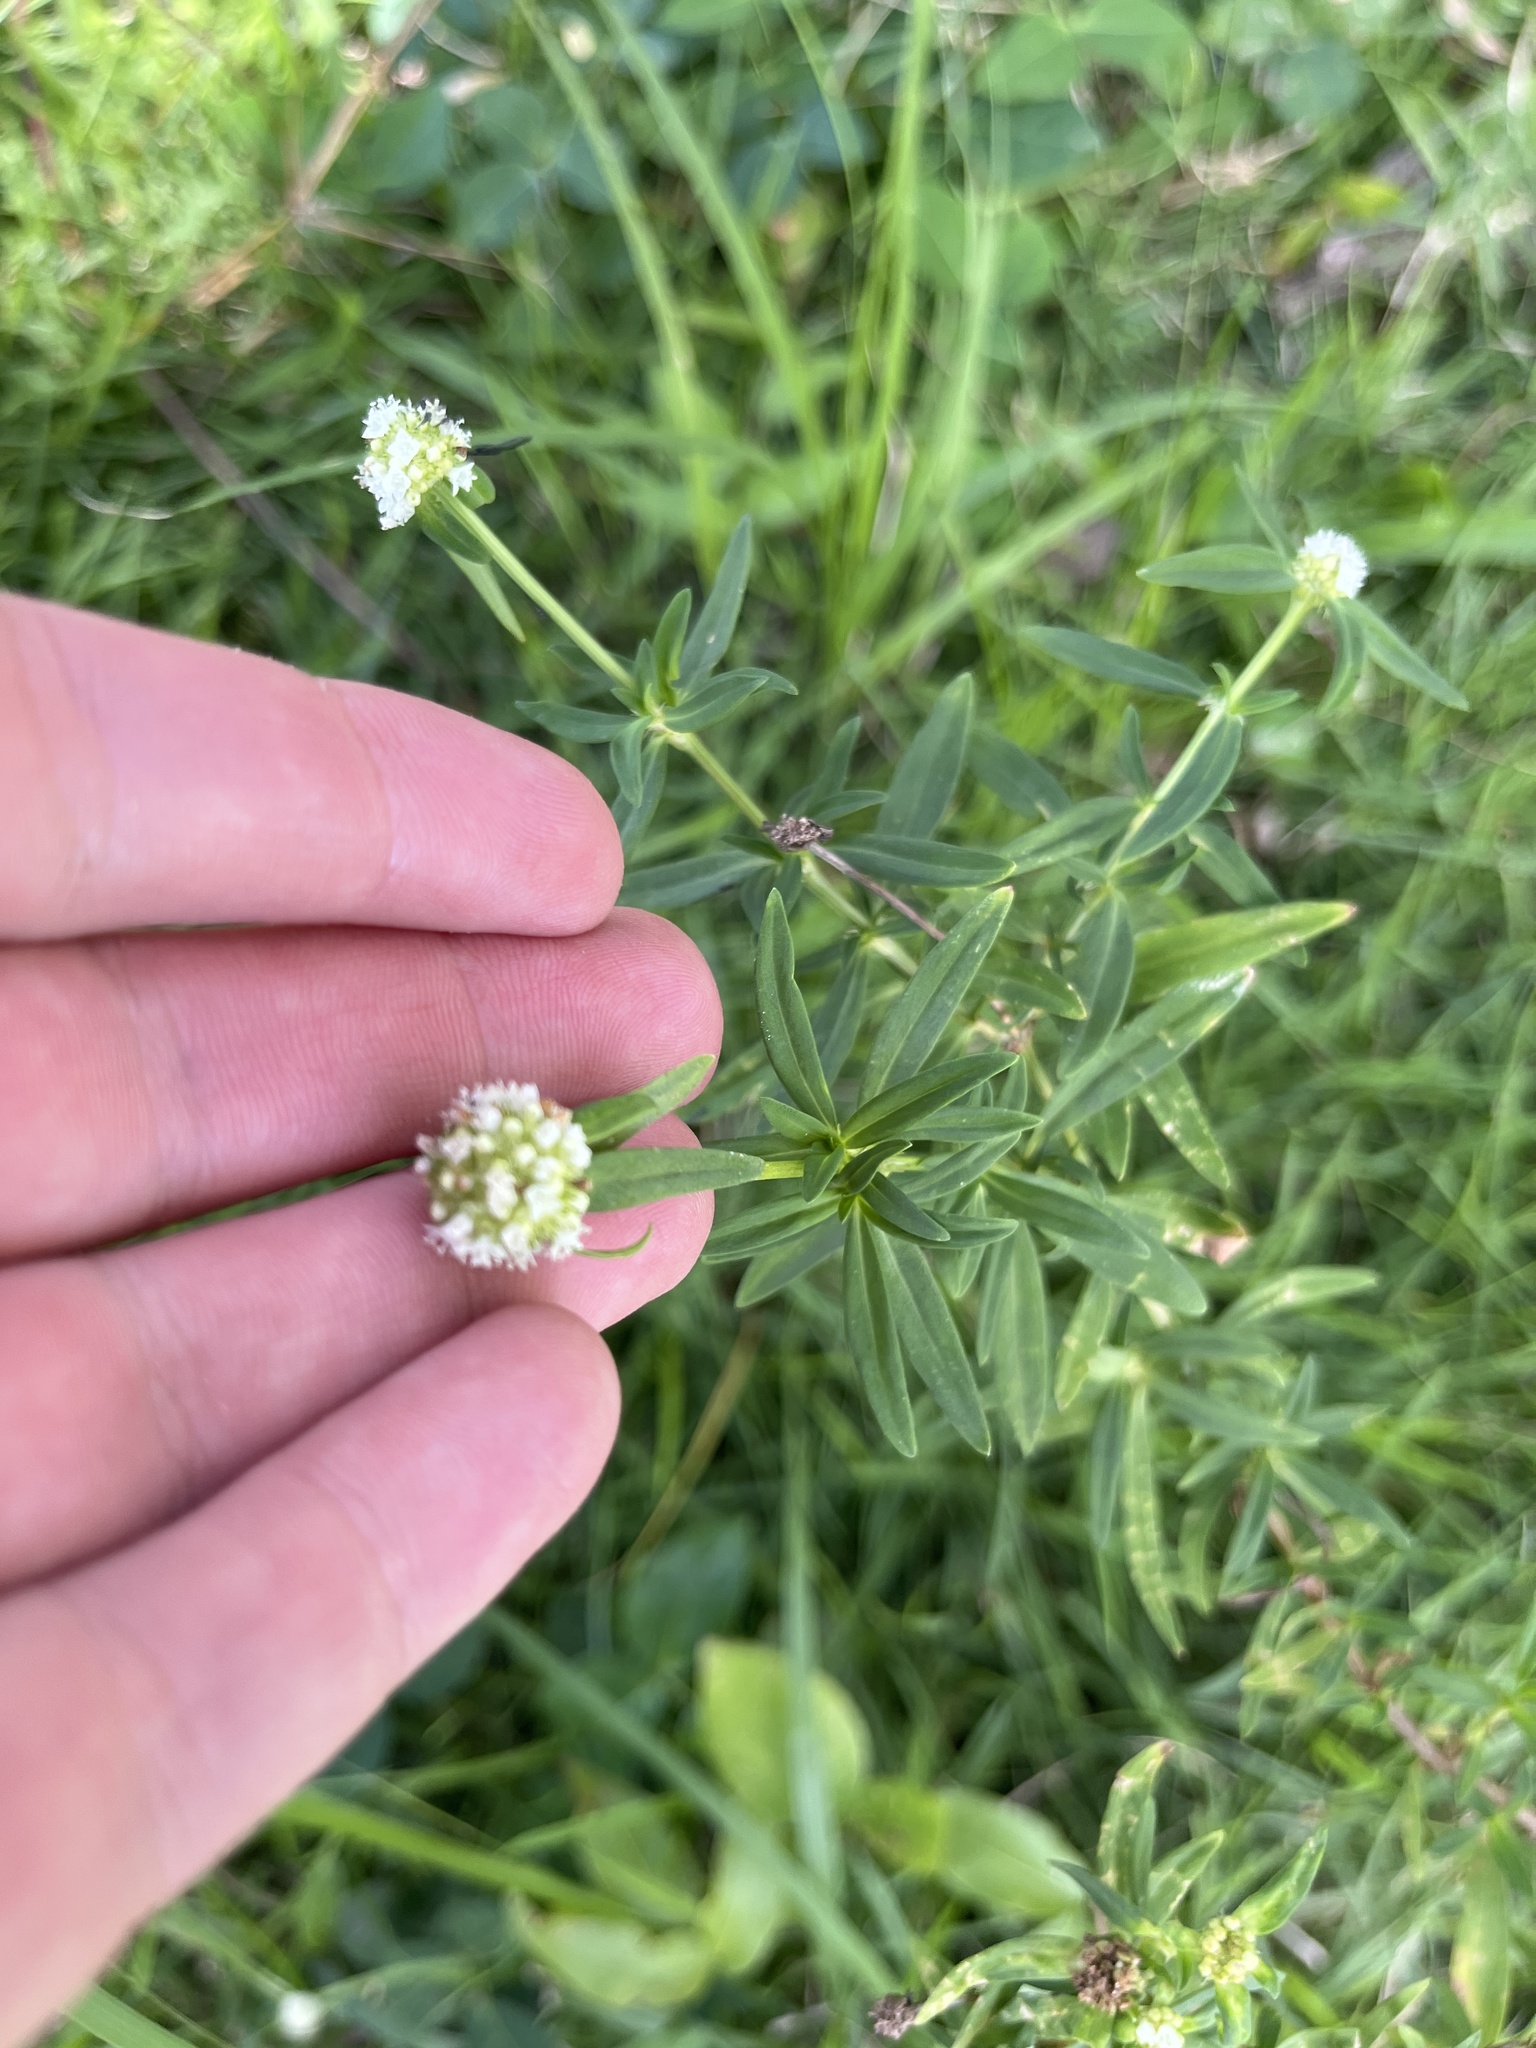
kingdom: Plantae
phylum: Tracheophyta
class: Magnoliopsida
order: Gentianales
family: Rubiaceae
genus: Spermacoce
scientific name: Spermacoce verticillata
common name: Shrubby false buttonweed
